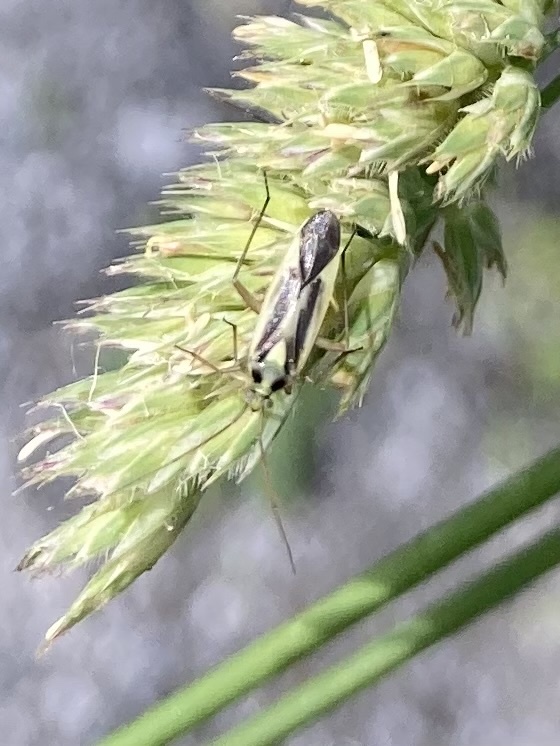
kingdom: Animalia
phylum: Arthropoda
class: Insecta
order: Hemiptera
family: Miridae
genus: Stenotus
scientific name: Stenotus binotatus
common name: Plant bug
